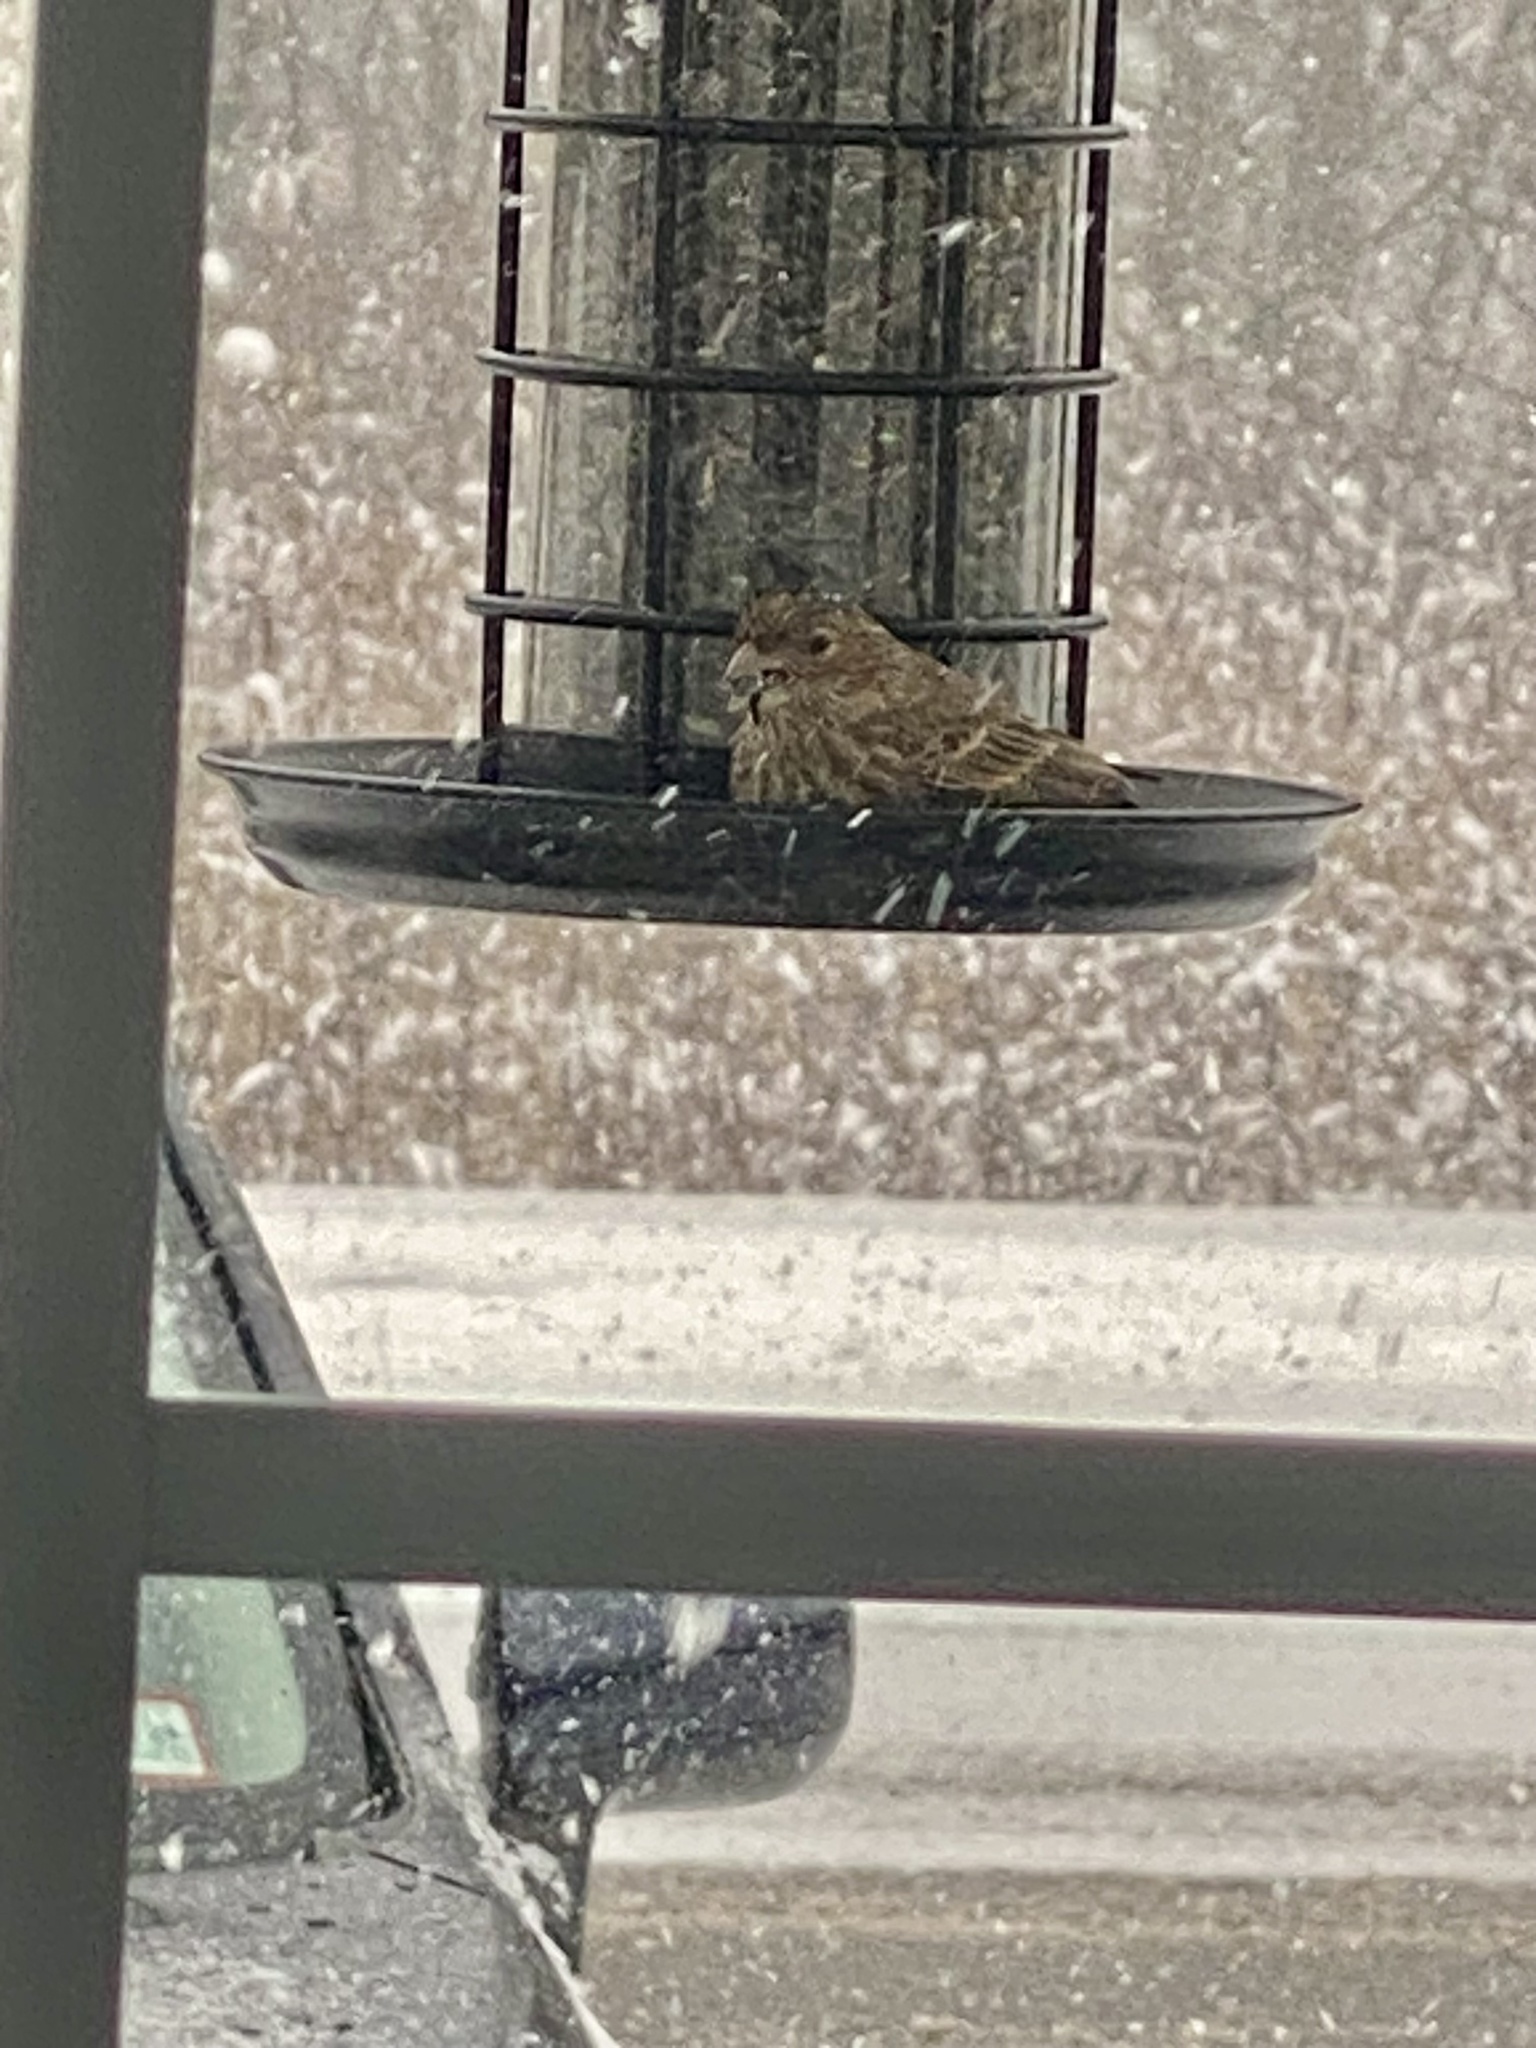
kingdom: Animalia
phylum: Chordata
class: Aves
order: Passeriformes
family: Fringillidae
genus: Haemorhous
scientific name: Haemorhous mexicanus
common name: House finch
